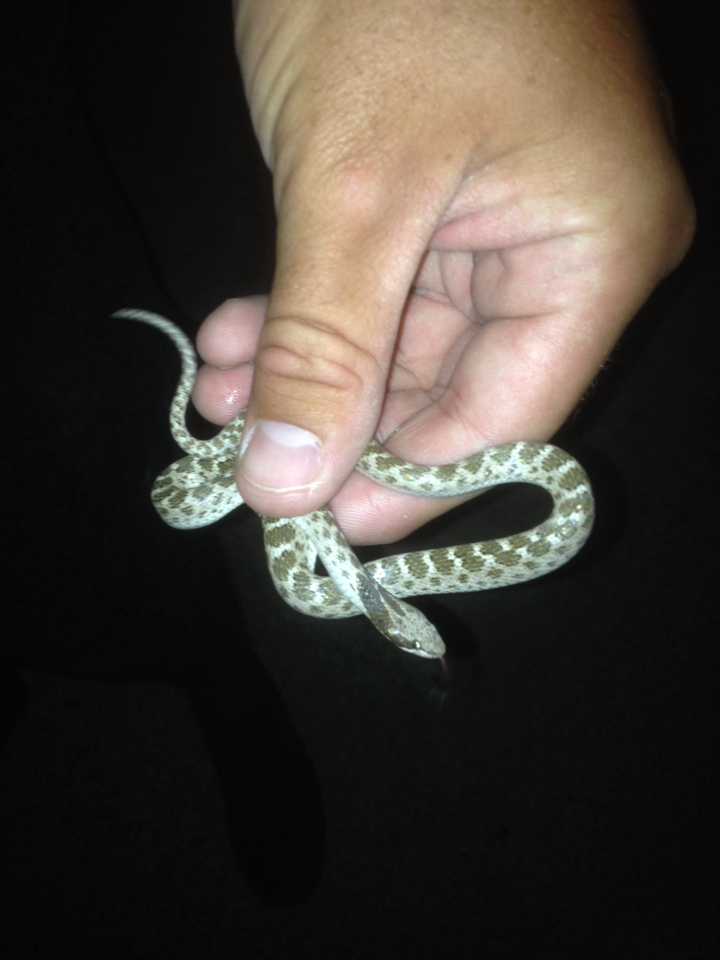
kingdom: Animalia
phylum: Chordata
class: Squamata
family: Colubridae
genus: Hypsiglena
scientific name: Hypsiglena jani
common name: Chihuahuan nightsnake
